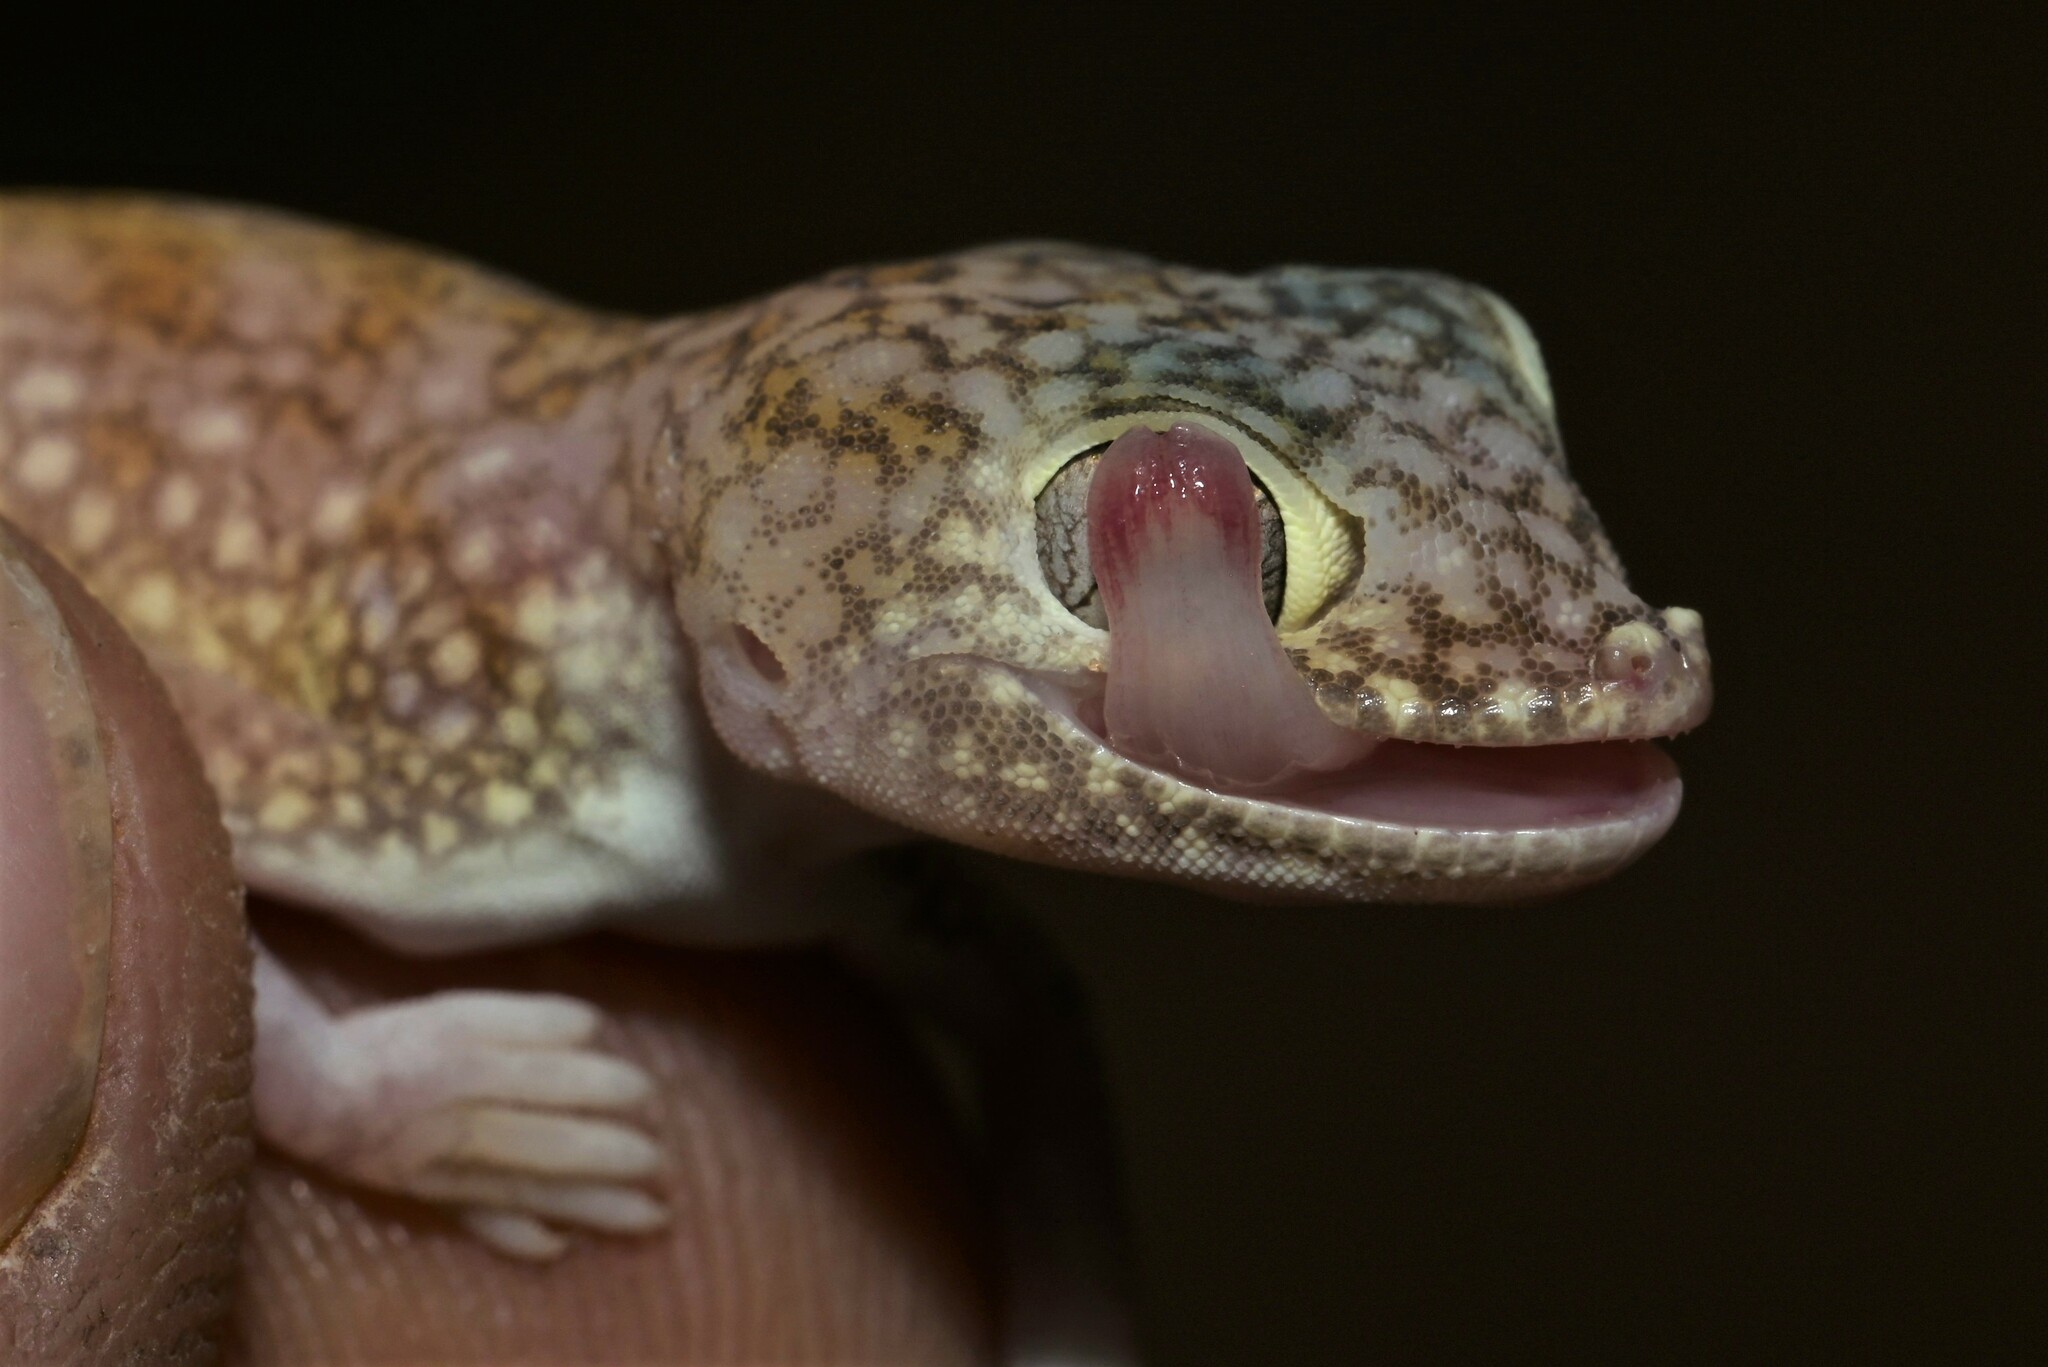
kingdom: Animalia
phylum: Chordata
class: Squamata
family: Gekkonidae
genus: Stenodactylus
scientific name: Stenodactylus doriae
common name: Dune sand gecko
